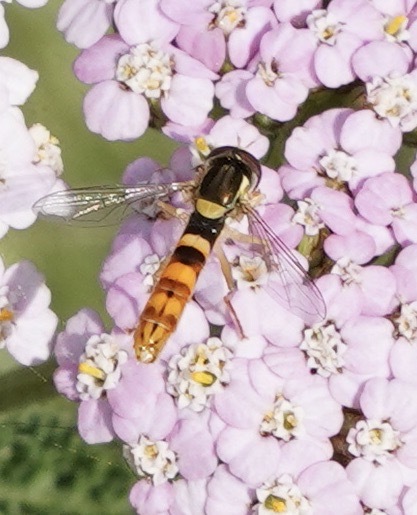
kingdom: Animalia
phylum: Arthropoda
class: Insecta
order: Diptera
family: Syrphidae
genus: Sphaerophoria
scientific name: Sphaerophoria scripta
